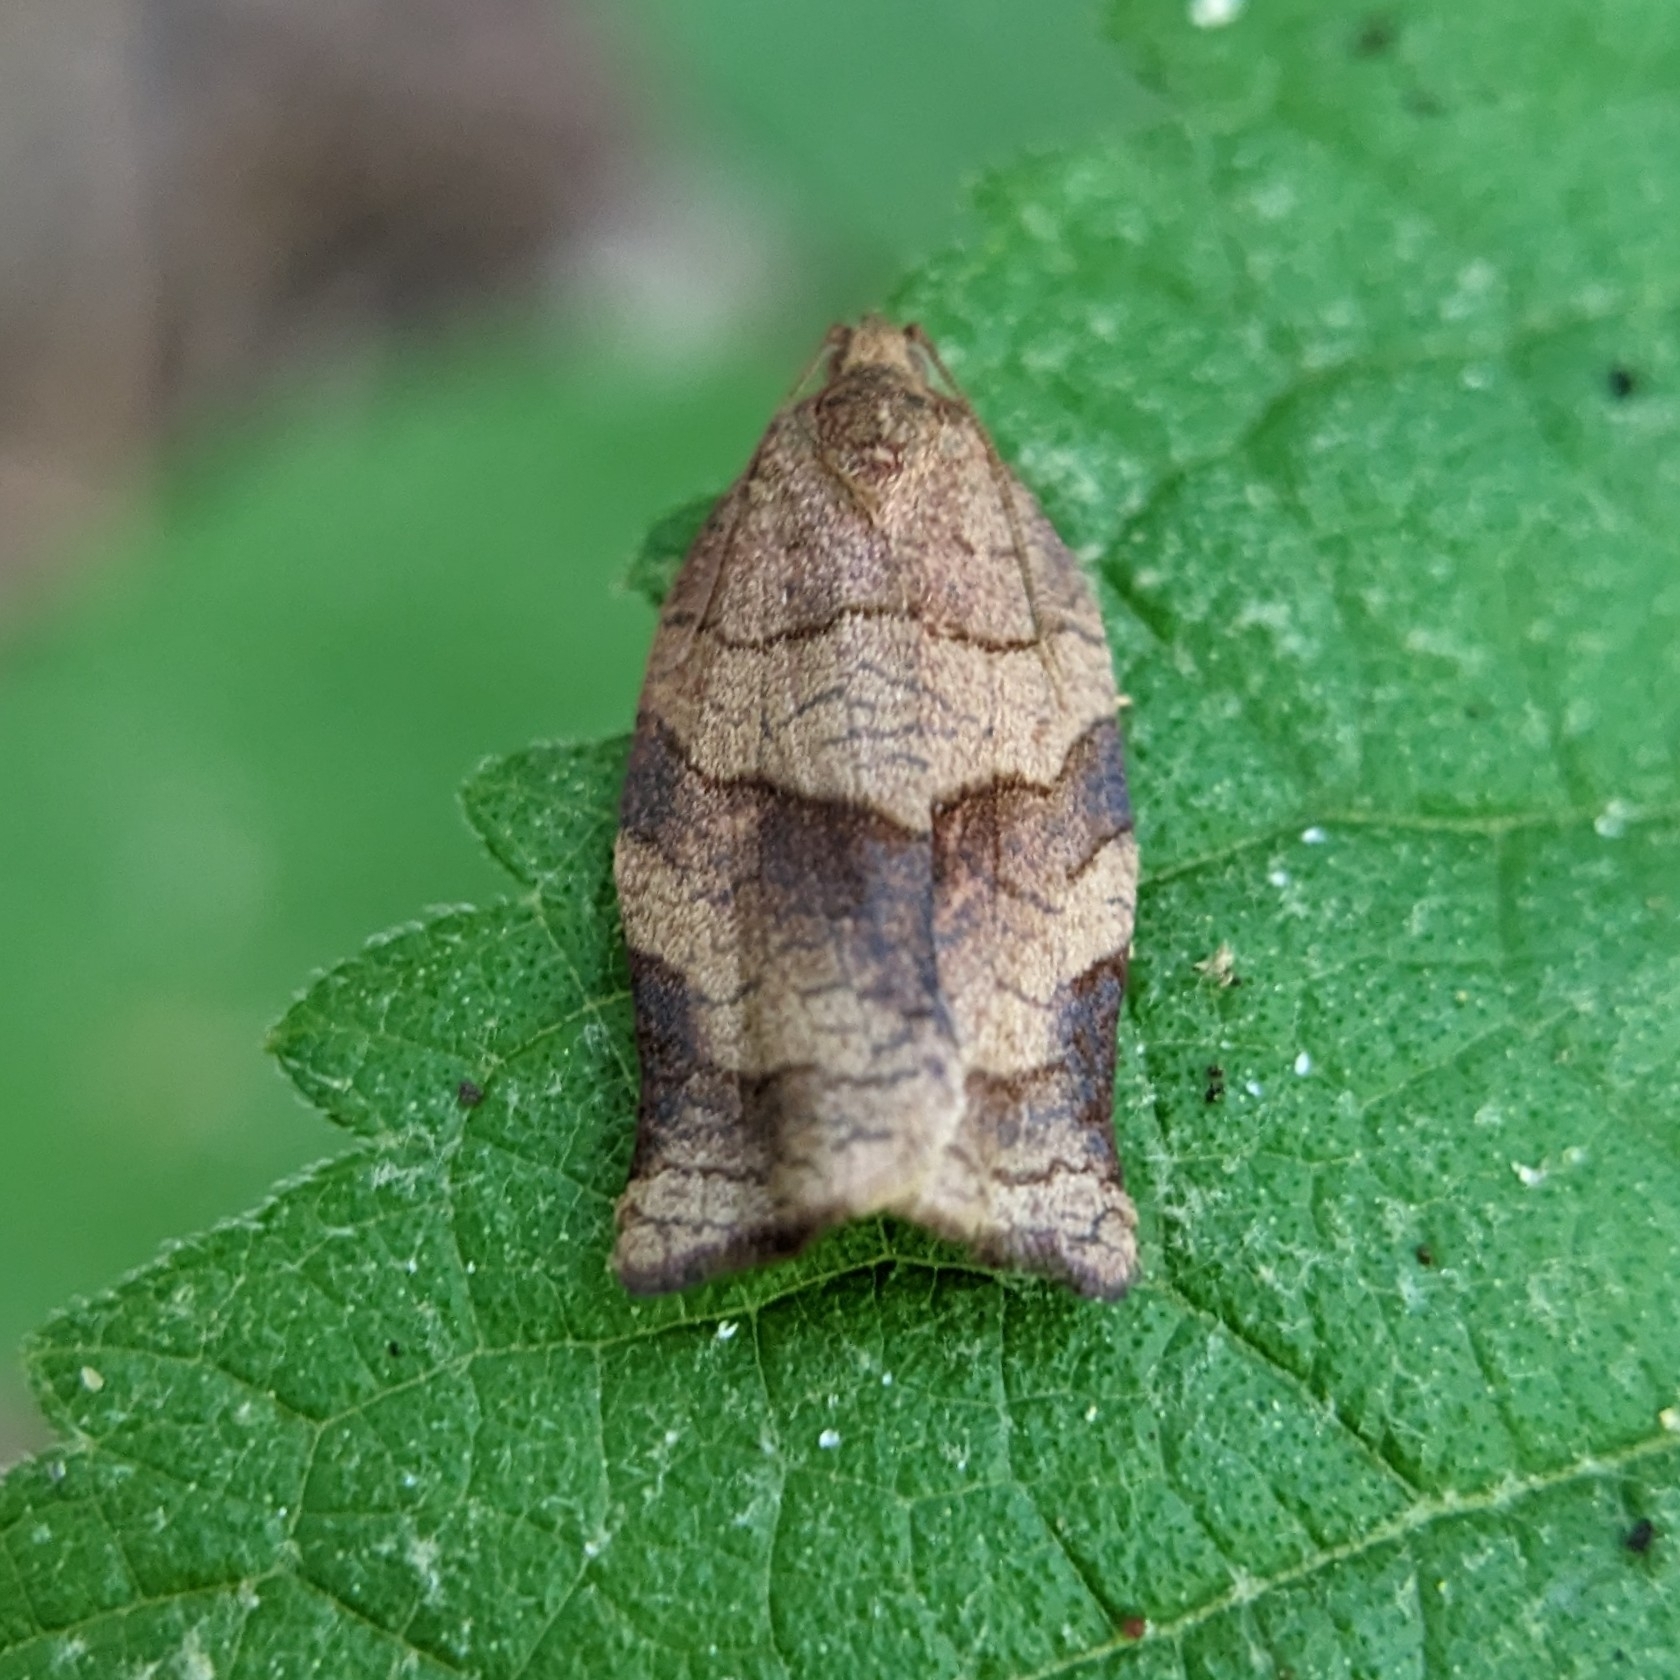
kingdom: Animalia
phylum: Arthropoda
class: Insecta
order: Lepidoptera
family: Tortricidae
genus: Choristoneura
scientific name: Choristoneura rosaceana
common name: Oblique-banded leafroller moth
